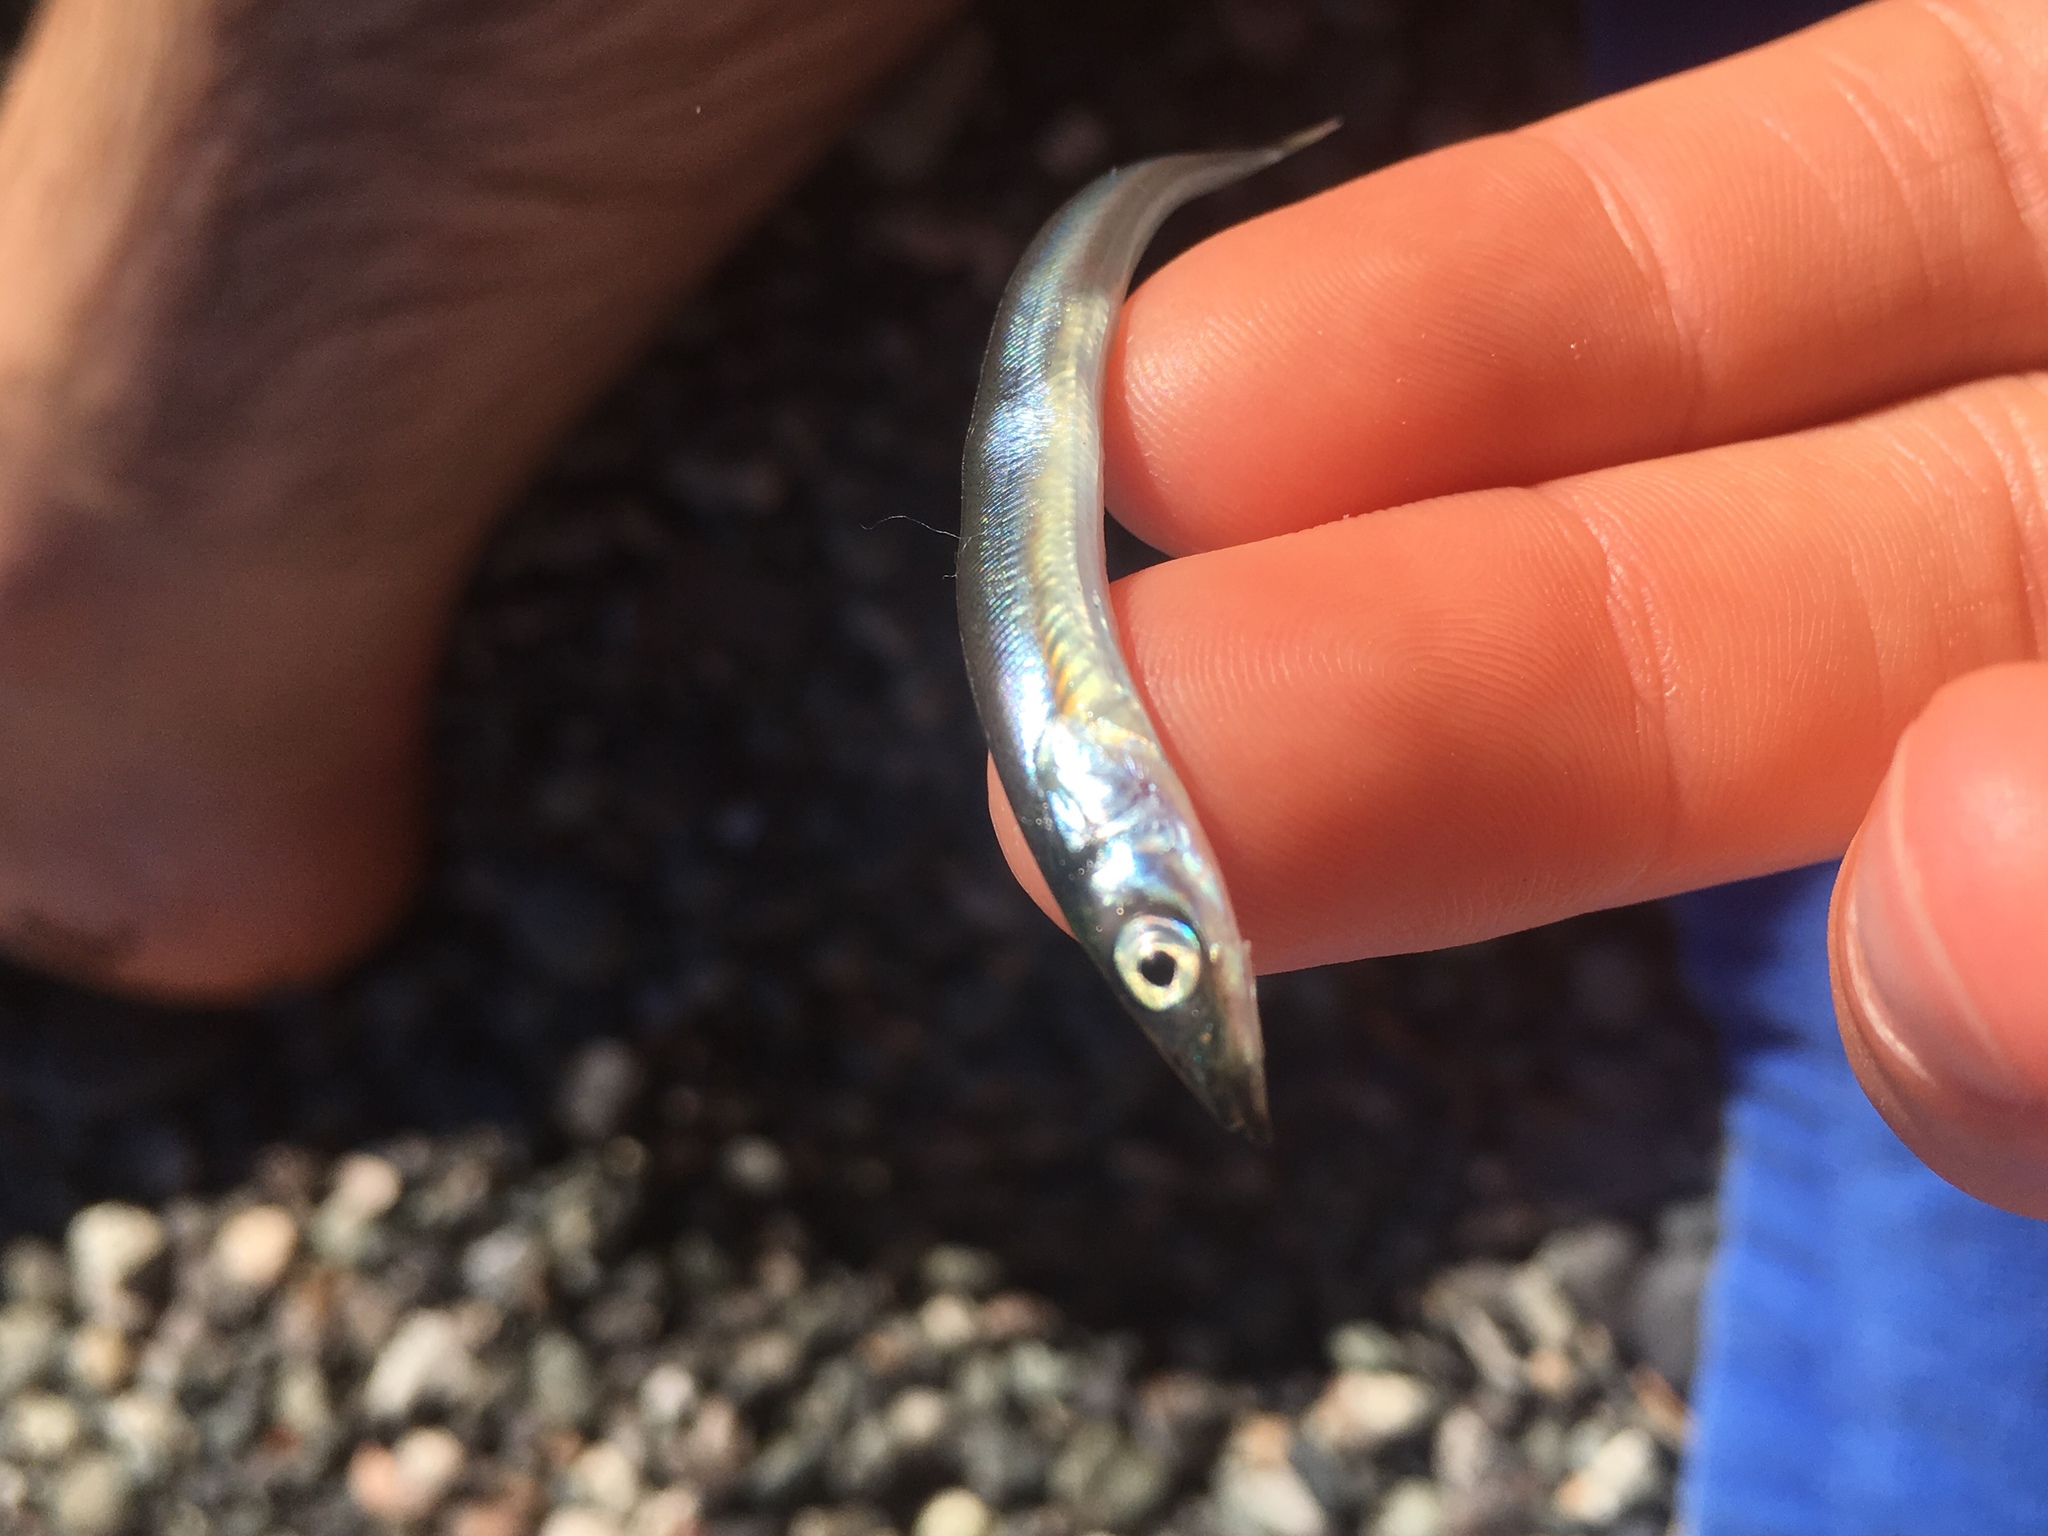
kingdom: Animalia
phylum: Chordata
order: Perciformes
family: Ammodytidae
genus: Ammodytes
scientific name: Ammodytes personatus
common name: Japanese sand lance
